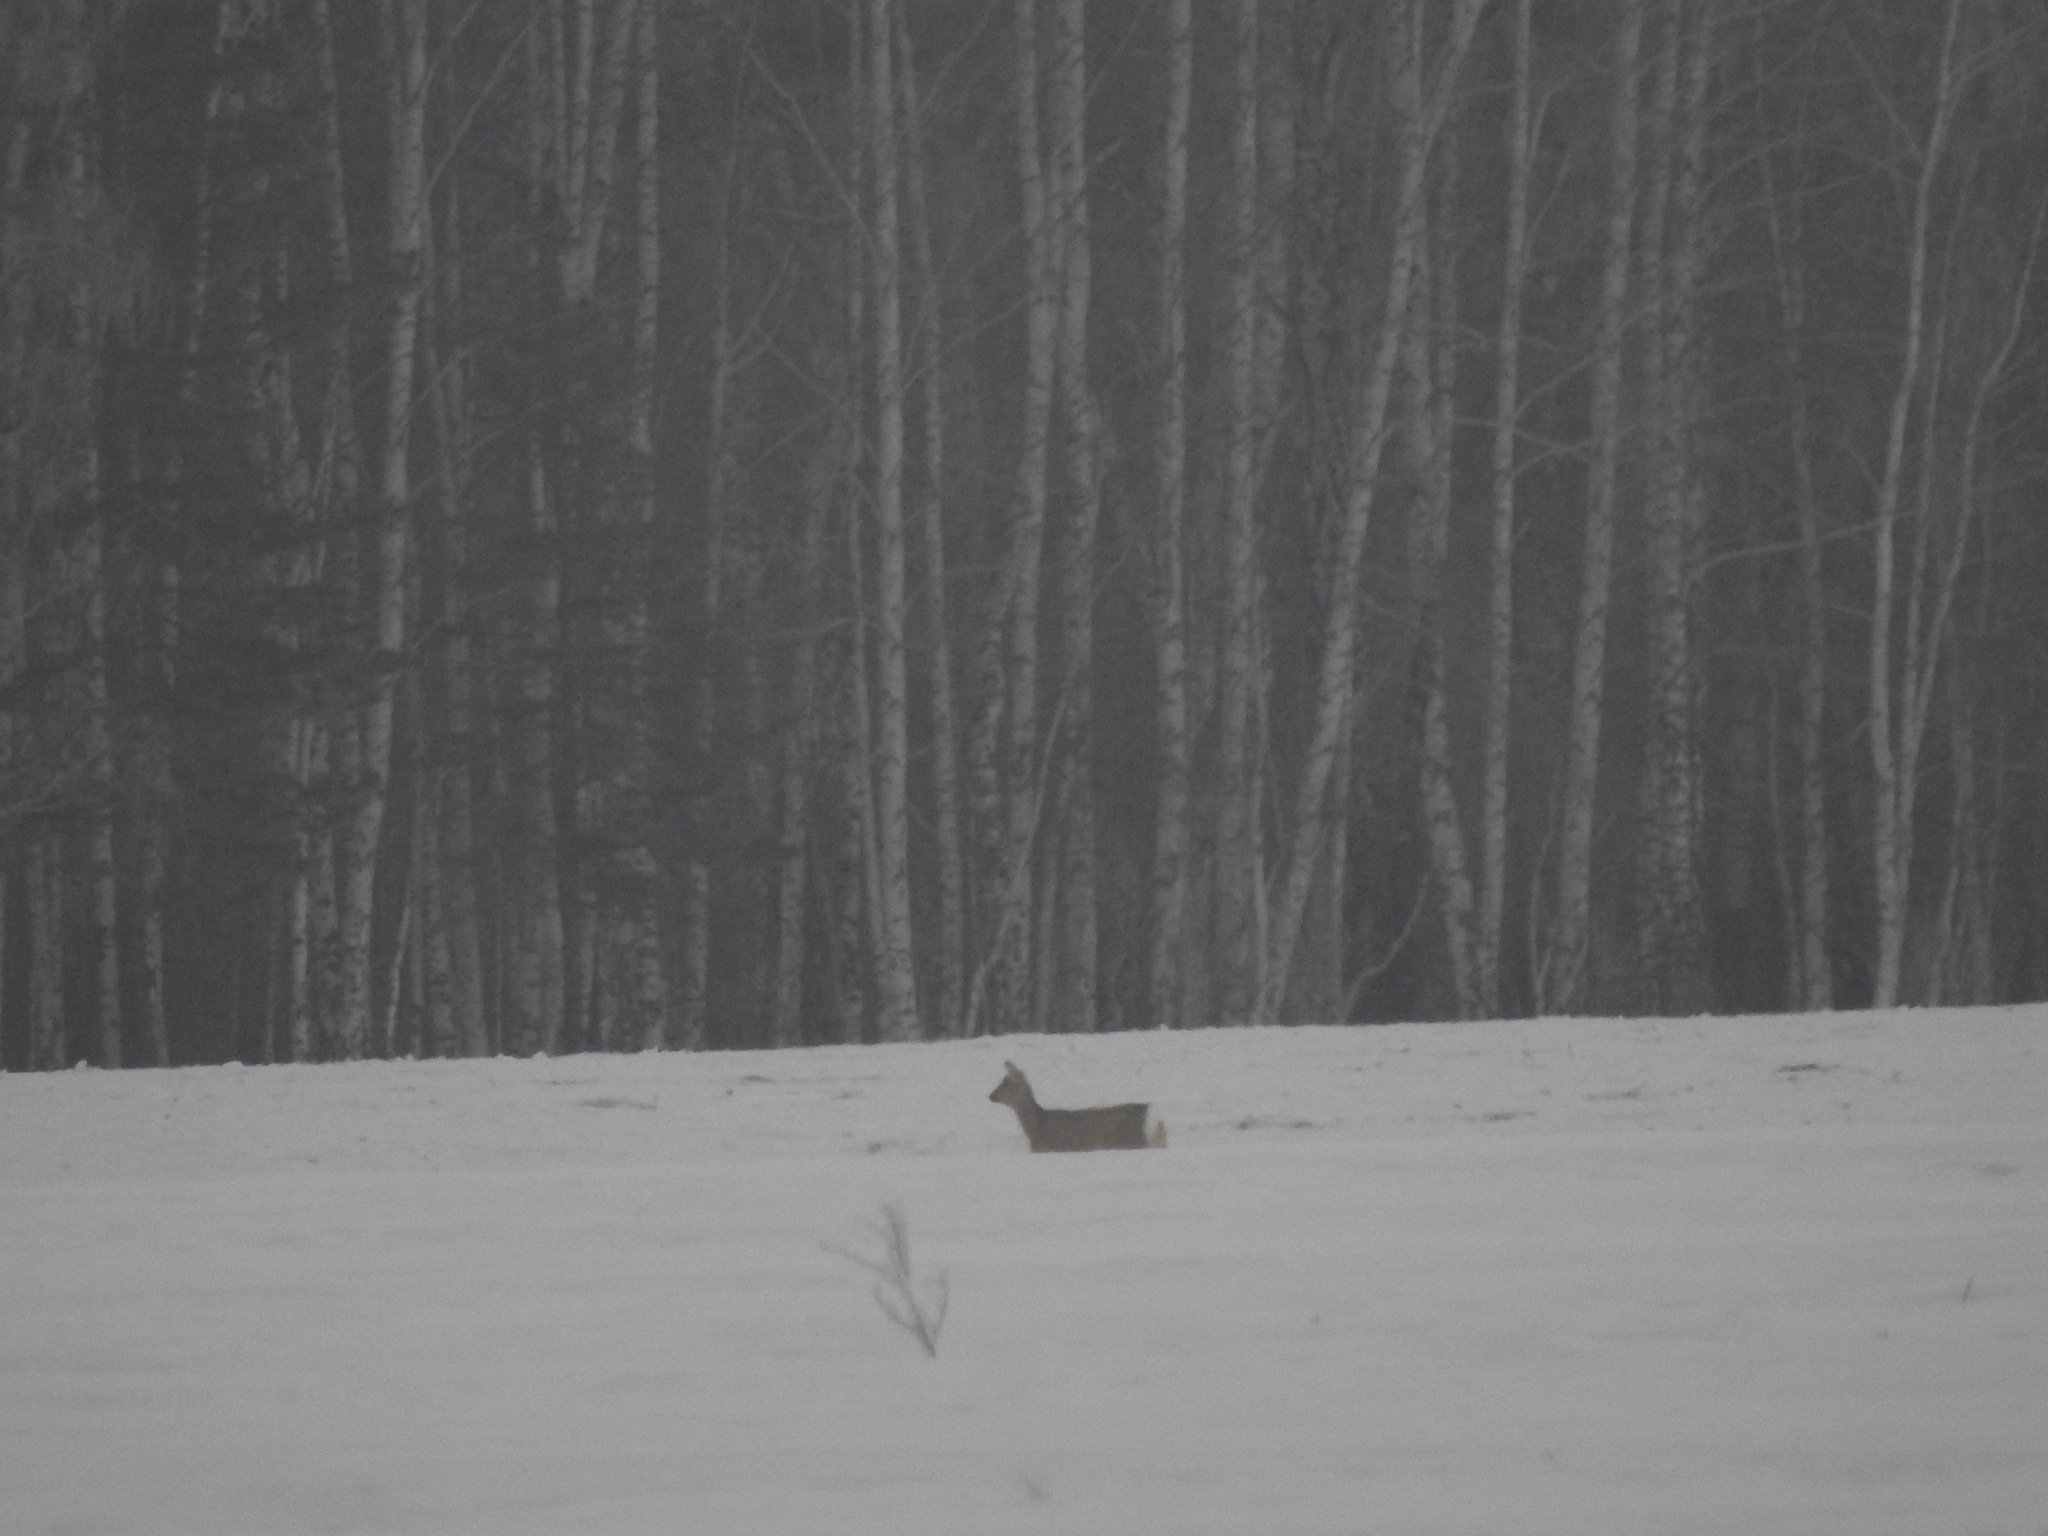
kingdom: Animalia
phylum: Chordata
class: Mammalia
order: Artiodactyla
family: Cervidae
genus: Capreolus
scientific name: Capreolus pygargus
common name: Siberian roe
